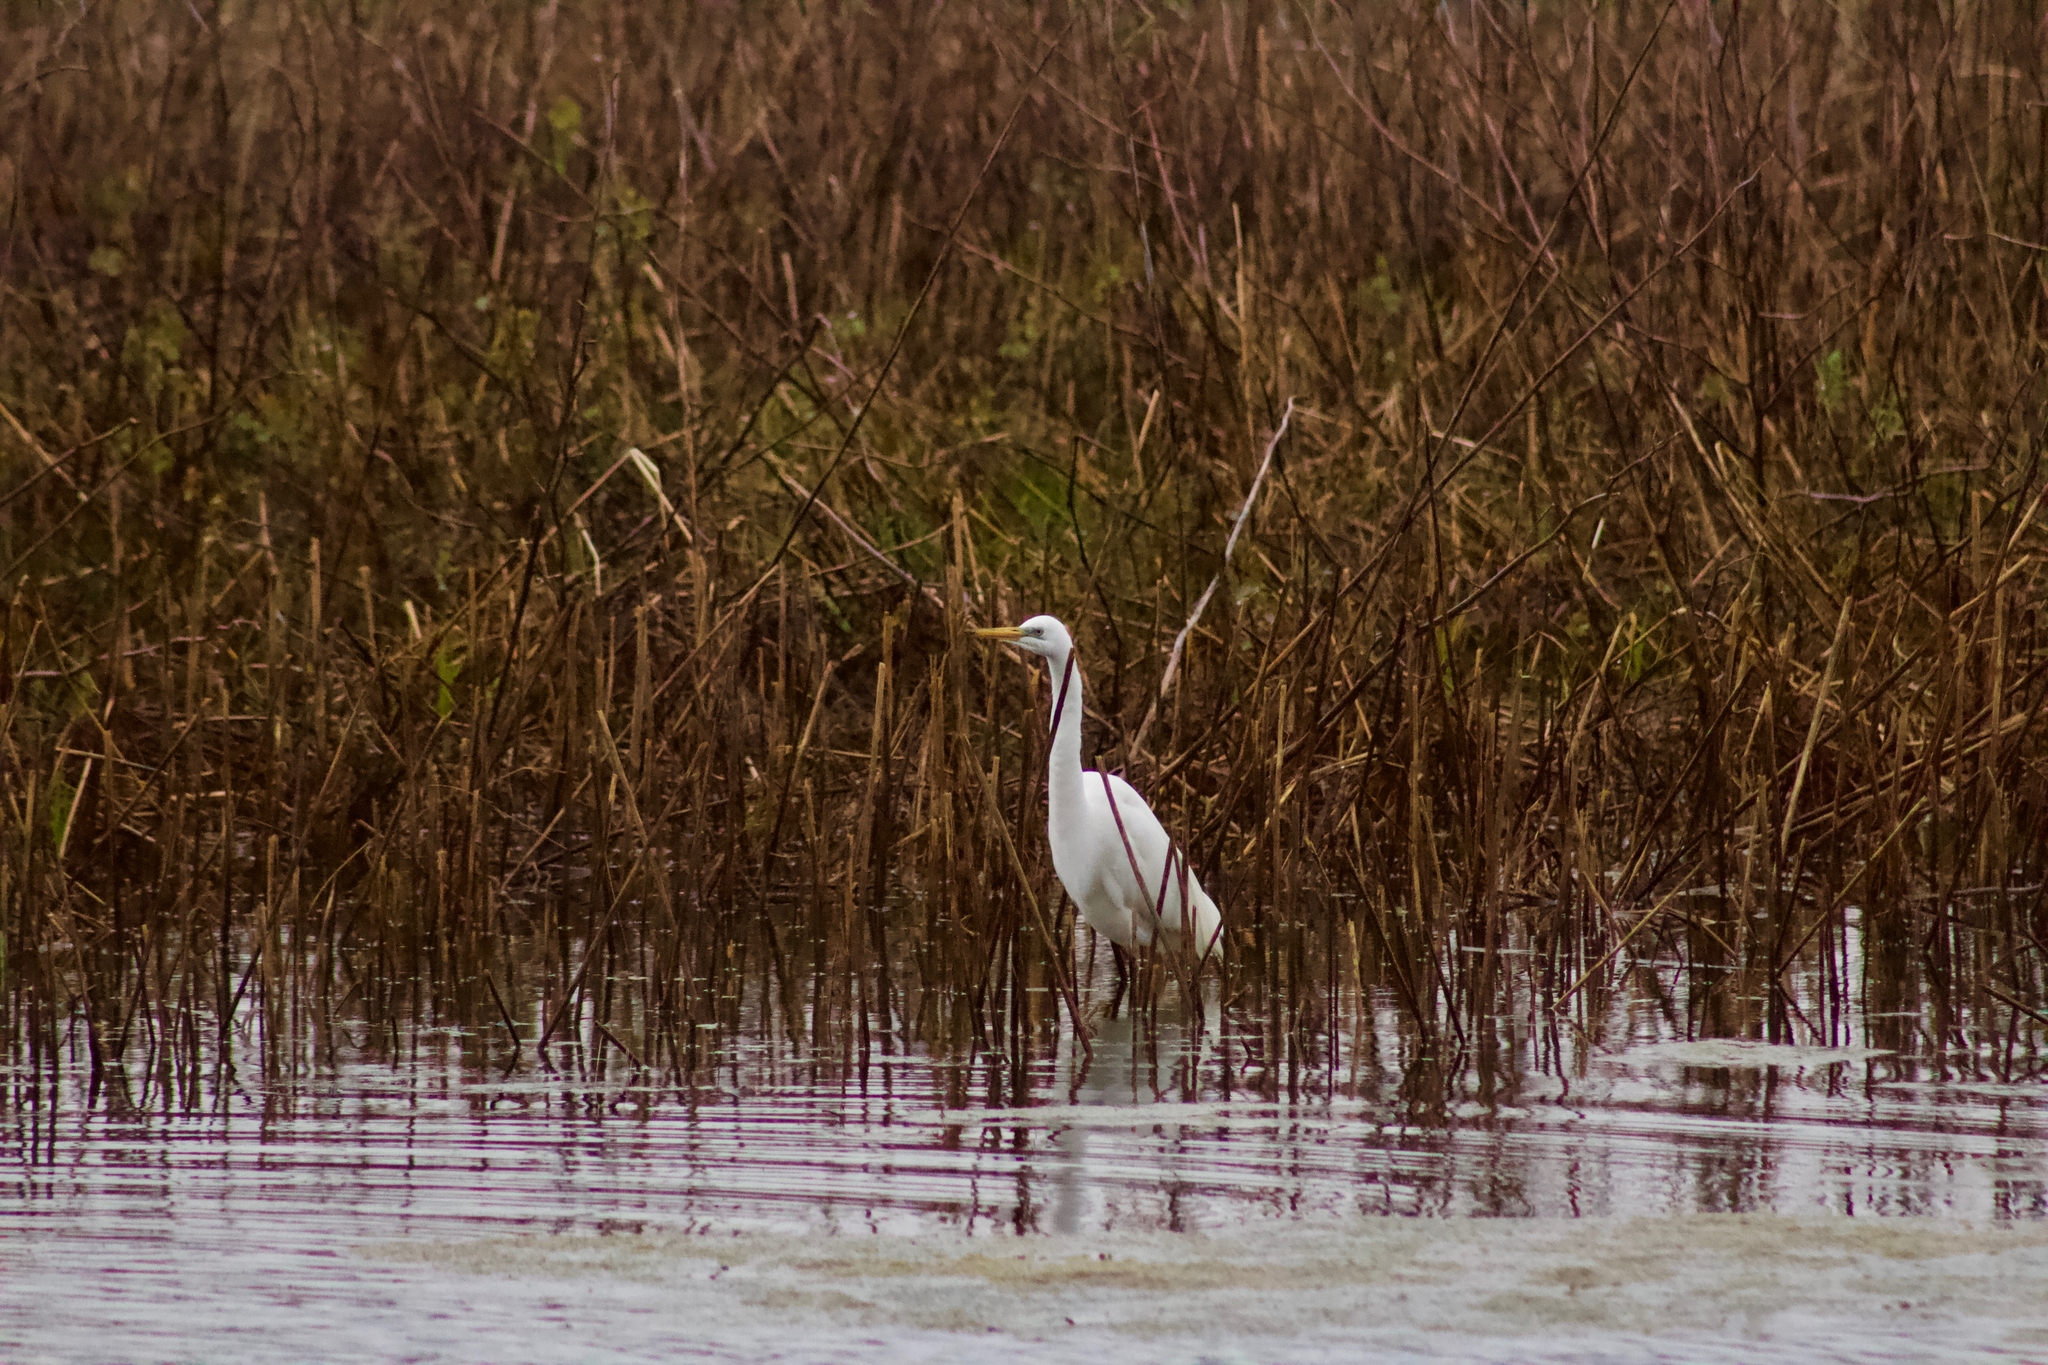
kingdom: Animalia
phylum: Chordata
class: Aves
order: Pelecaniformes
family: Ardeidae
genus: Ardea
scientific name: Ardea alba
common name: Great egret
